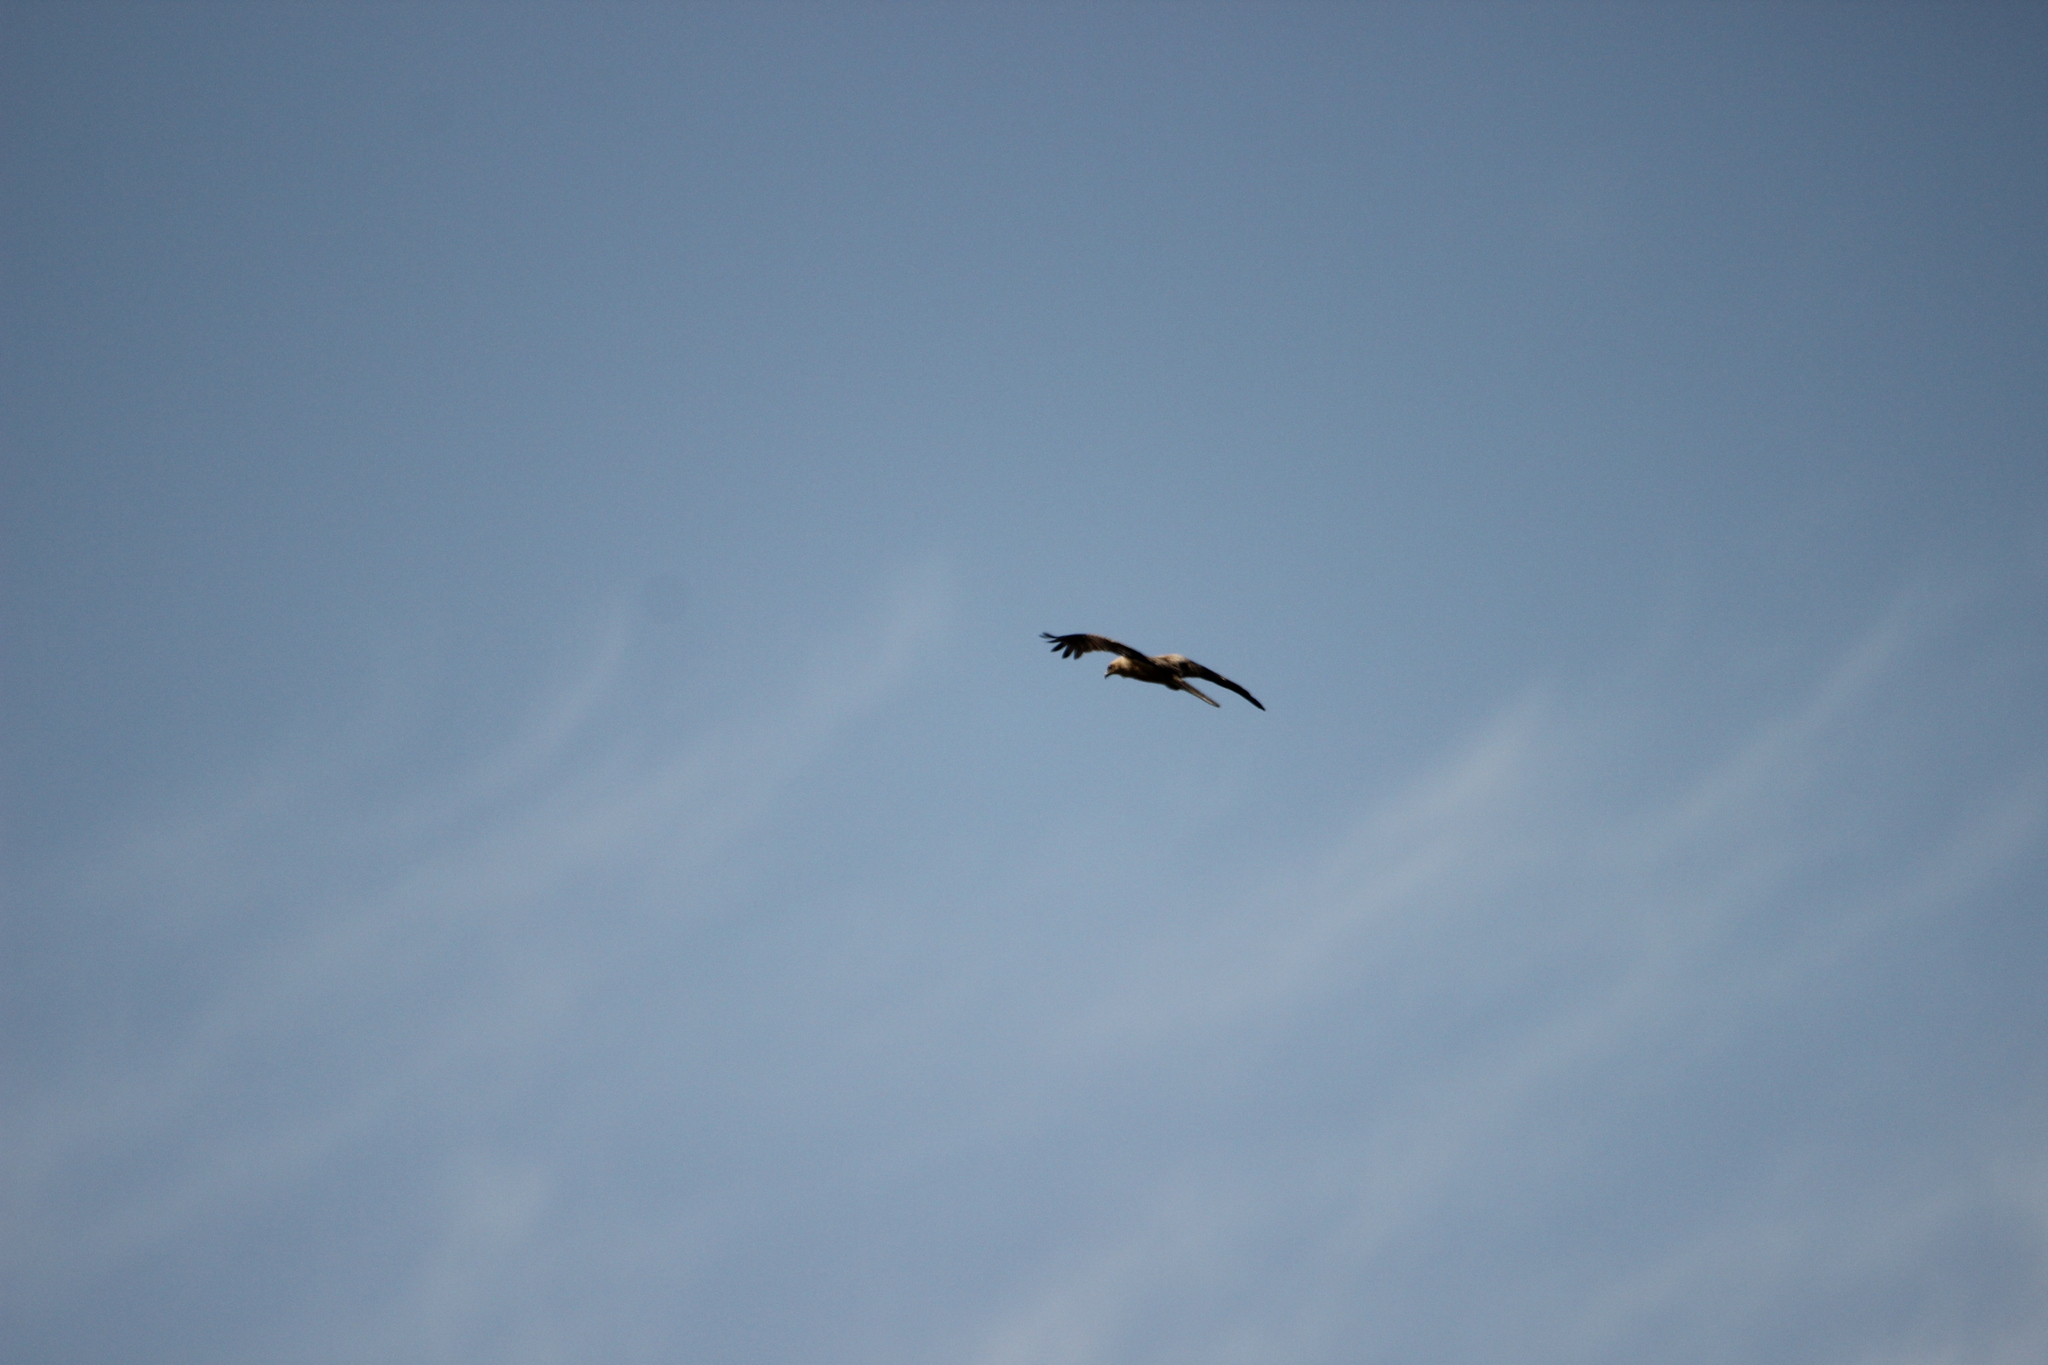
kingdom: Animalia
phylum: Chordata
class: Aves
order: Accipitriformes
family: Accipitridae
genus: Haliastur
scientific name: Haliastur sphenurus
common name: Whistling kite
